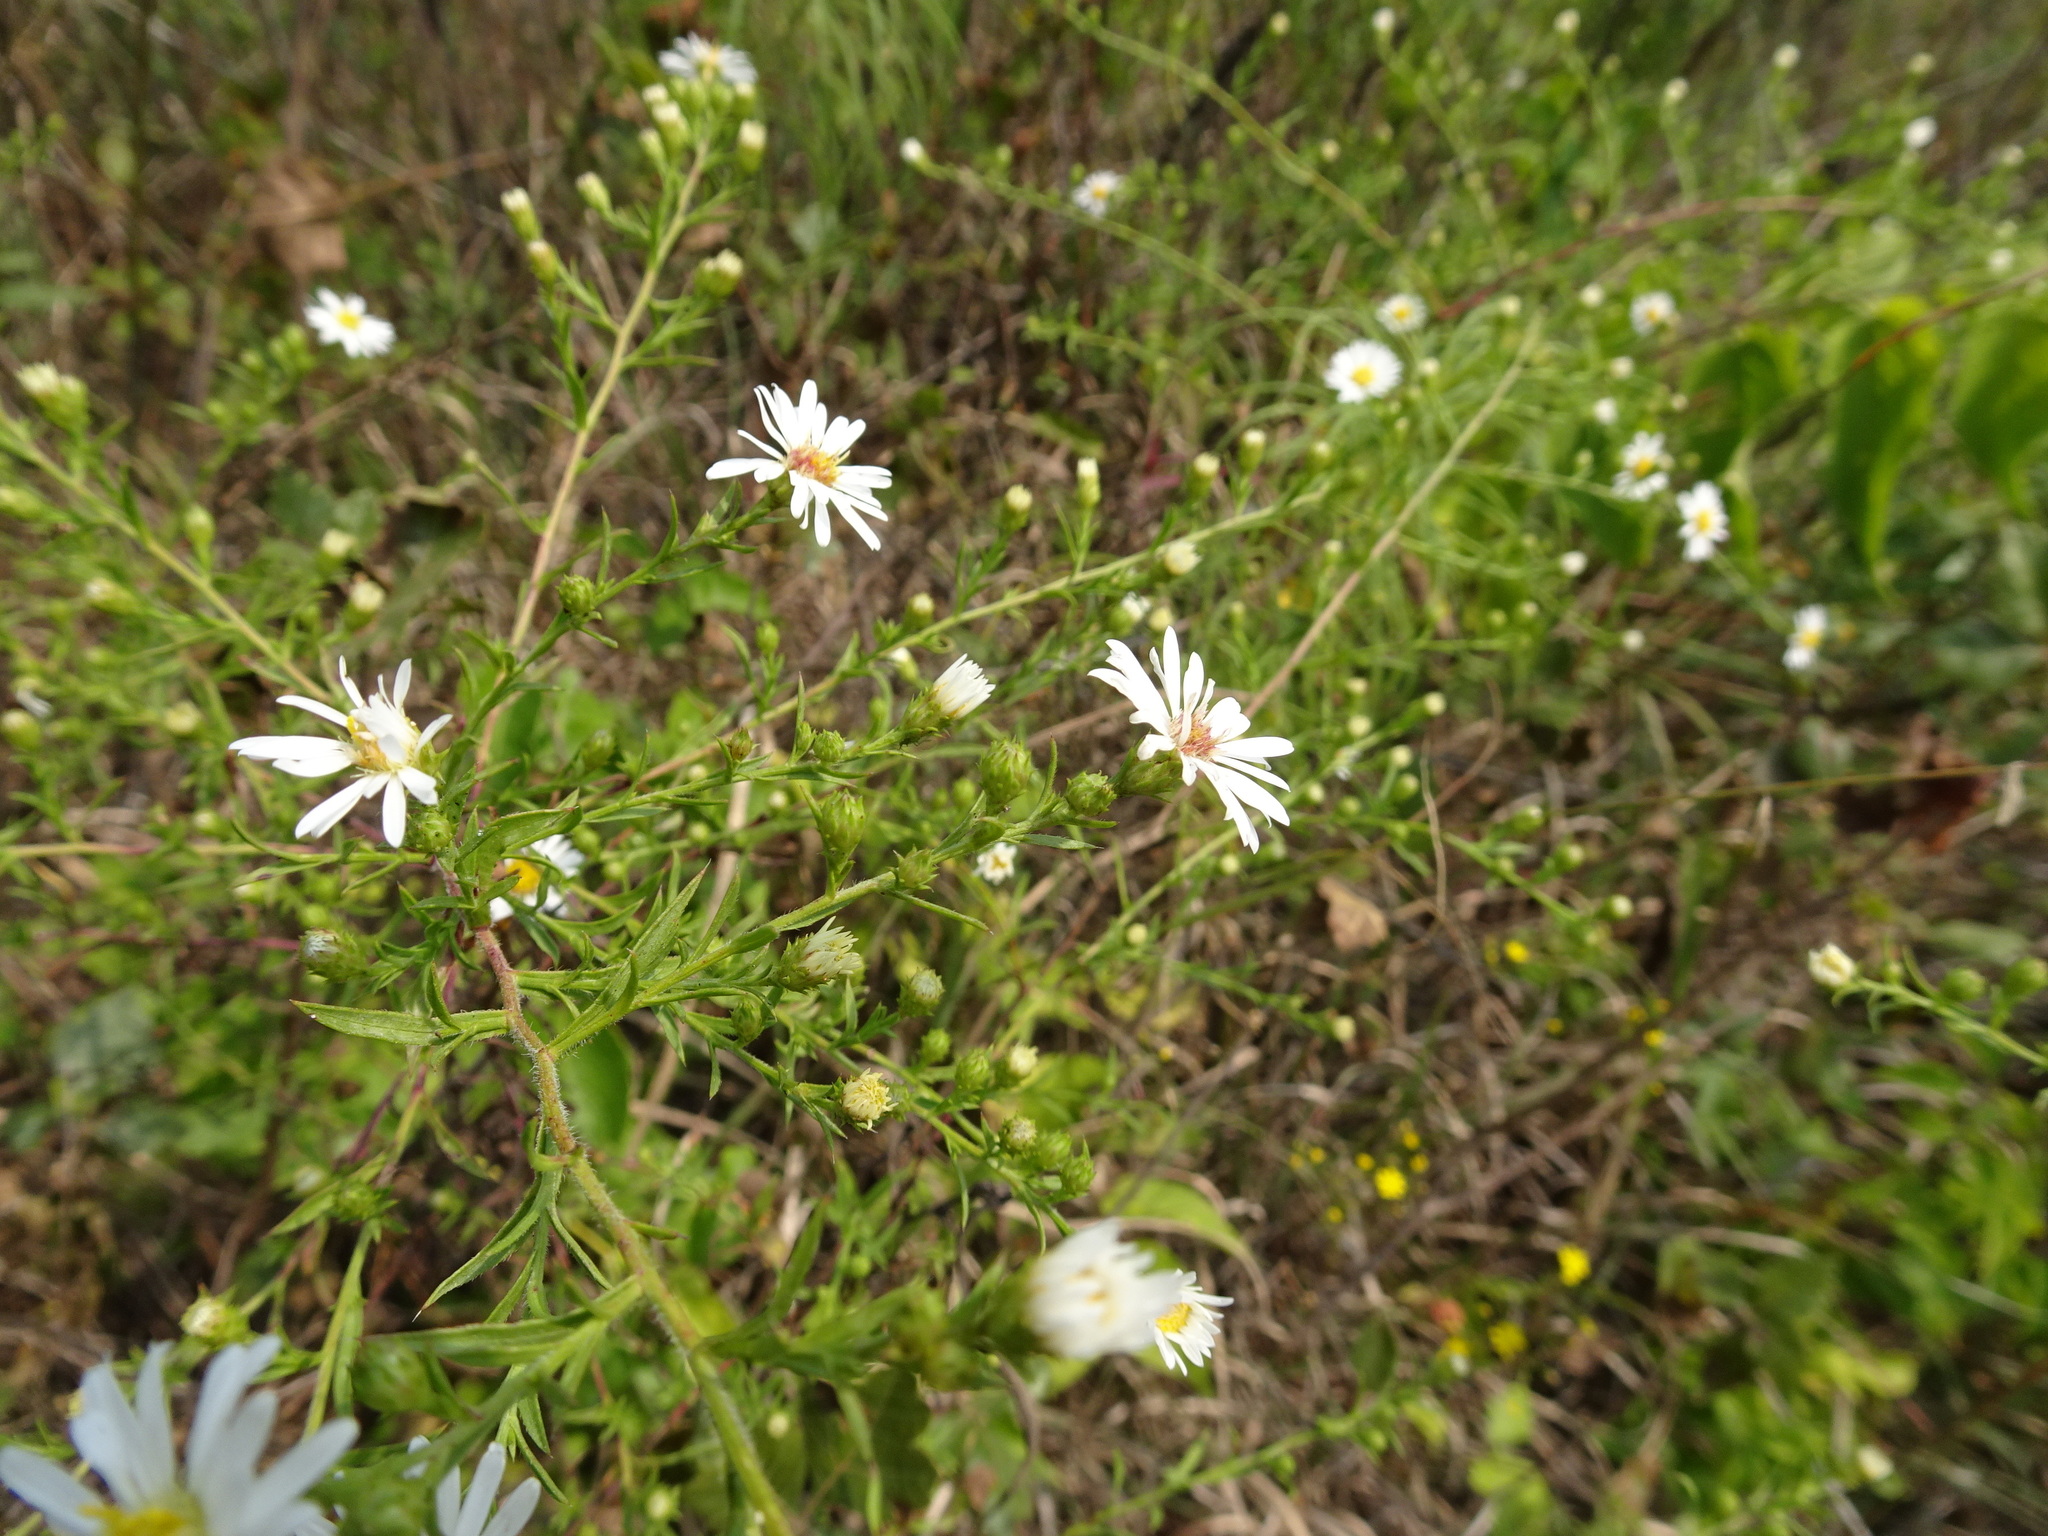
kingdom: Plantae
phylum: Tracheophyta
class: Magnoliopsida
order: Asterales
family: Asteraceae
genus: Symphyotrichum
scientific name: Symphyotrichum pilosum
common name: Awl aster
